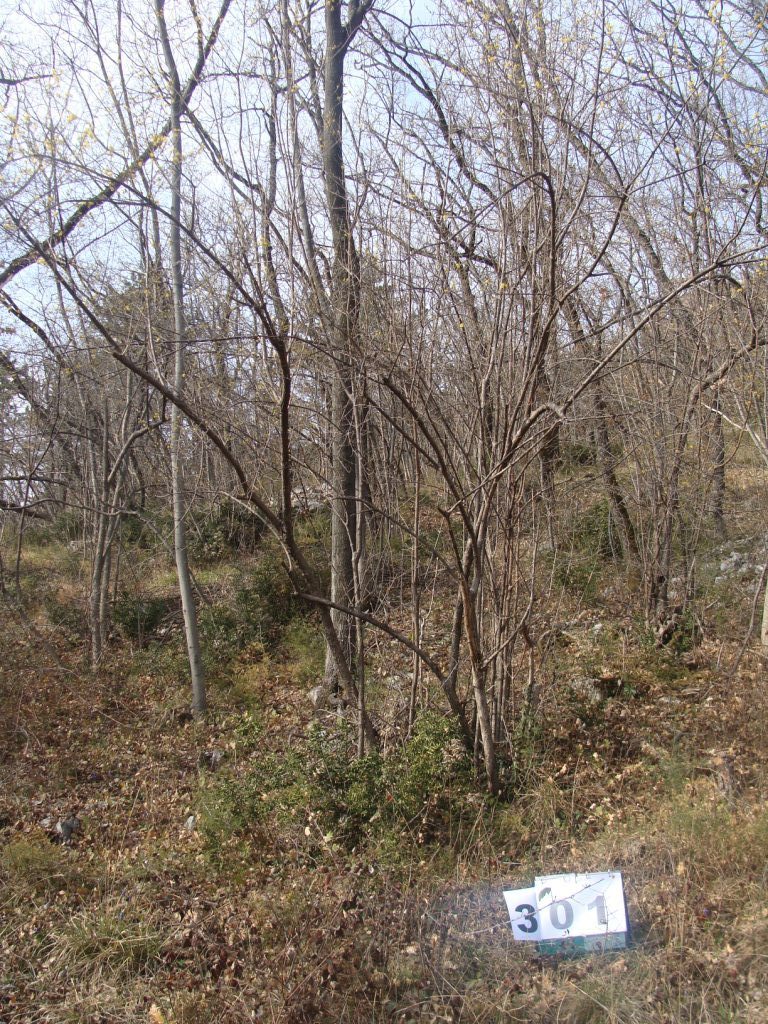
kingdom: Plantae
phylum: Tracheophyta
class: Magnoliopsida
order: Cornales
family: Cornaceae
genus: Cornus
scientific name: Cornus mas
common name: Cornelian-cherry
